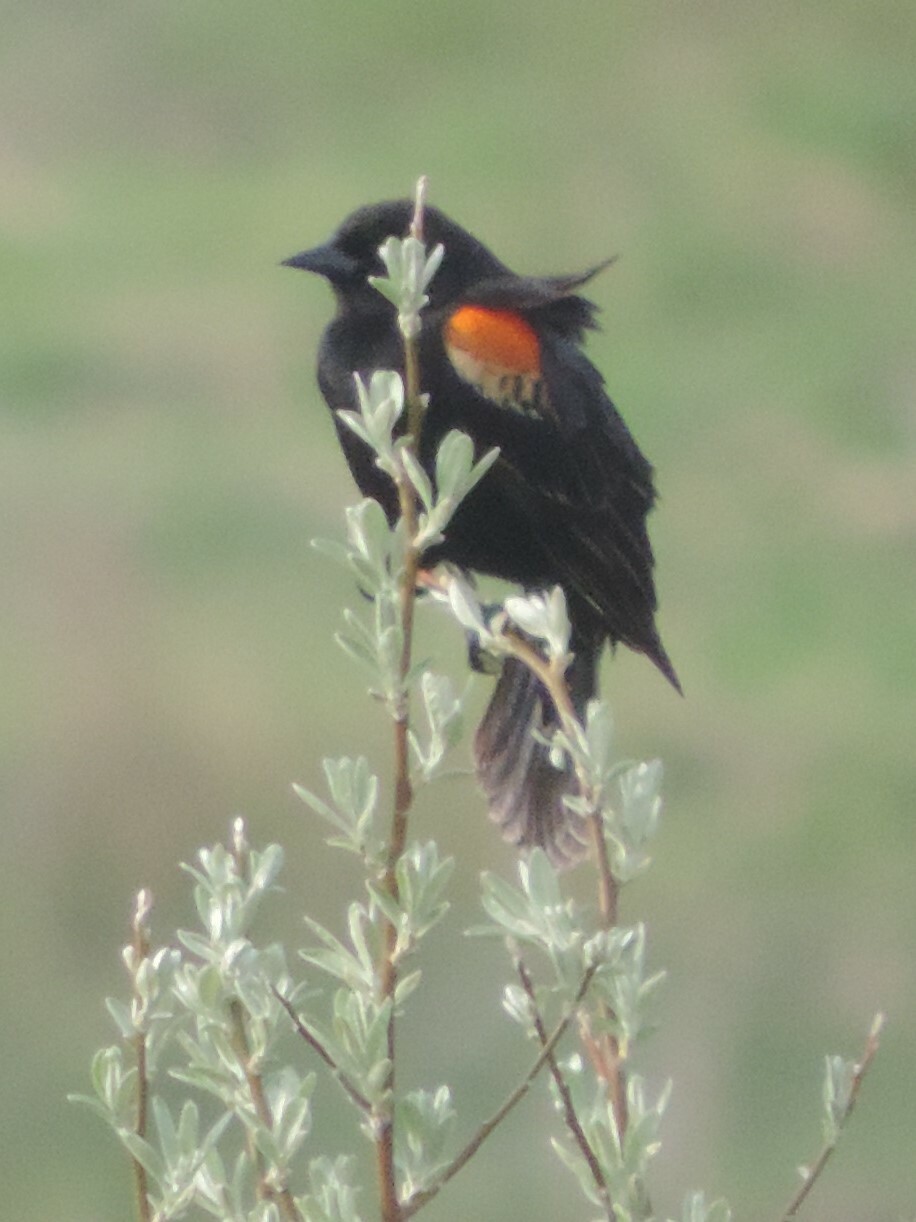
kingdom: Animalia
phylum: Chordata
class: Aves
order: Passeriformes
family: Icteridae
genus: Agelaius
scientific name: Agelaius phoeniceus
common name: Red-winged blackbird
